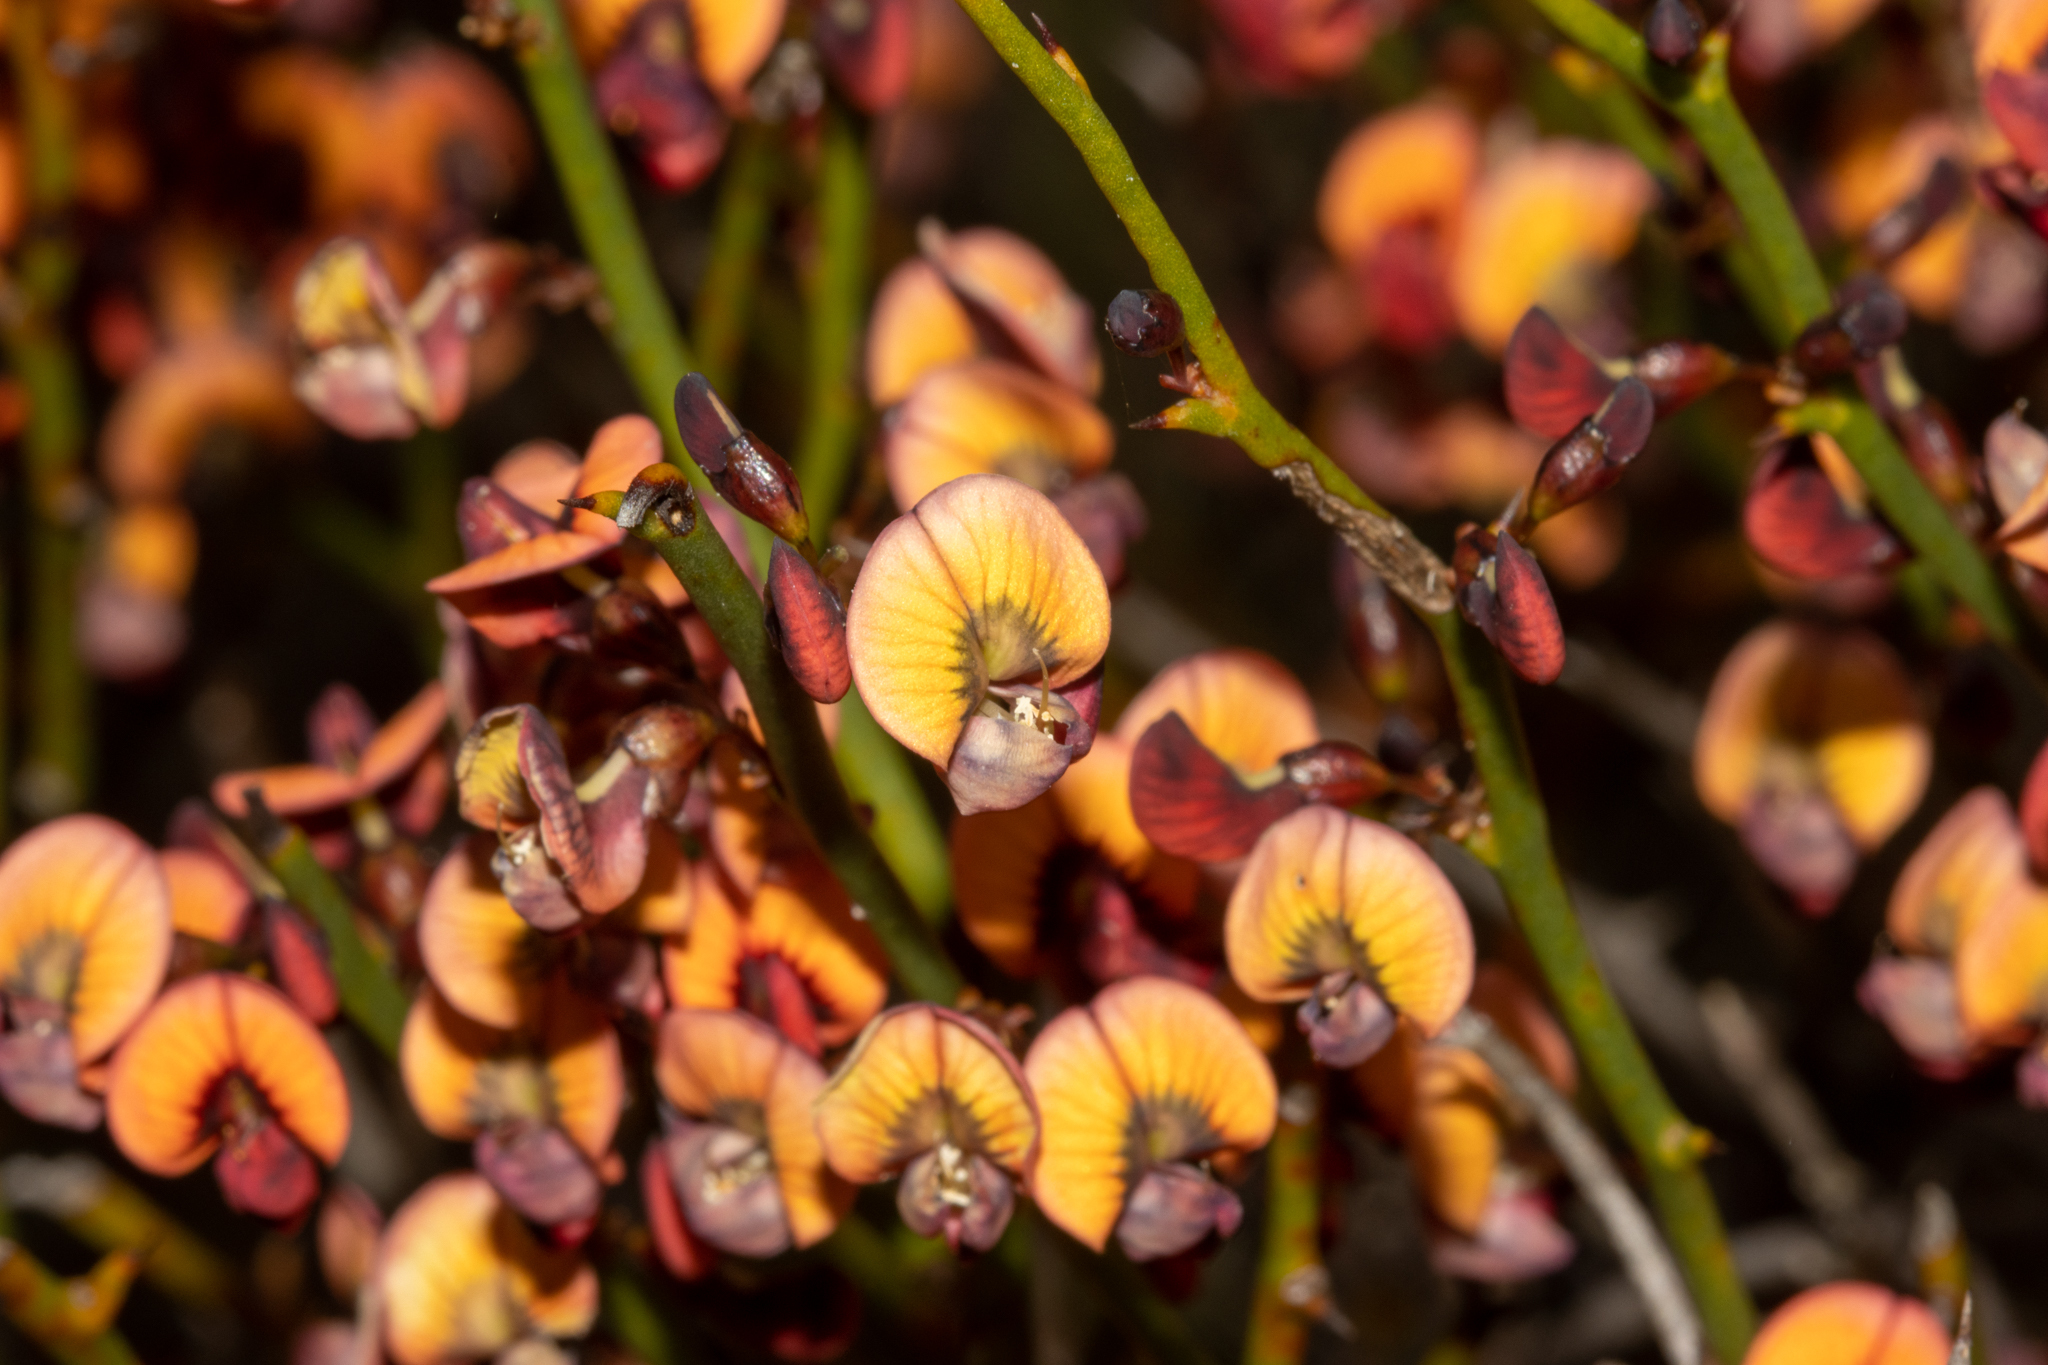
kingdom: Plantae
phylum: Tracheophyta
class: Magnoliopsida
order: Fabales
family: Fabaceae
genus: Daviesia
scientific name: Daviesia brevifolia
